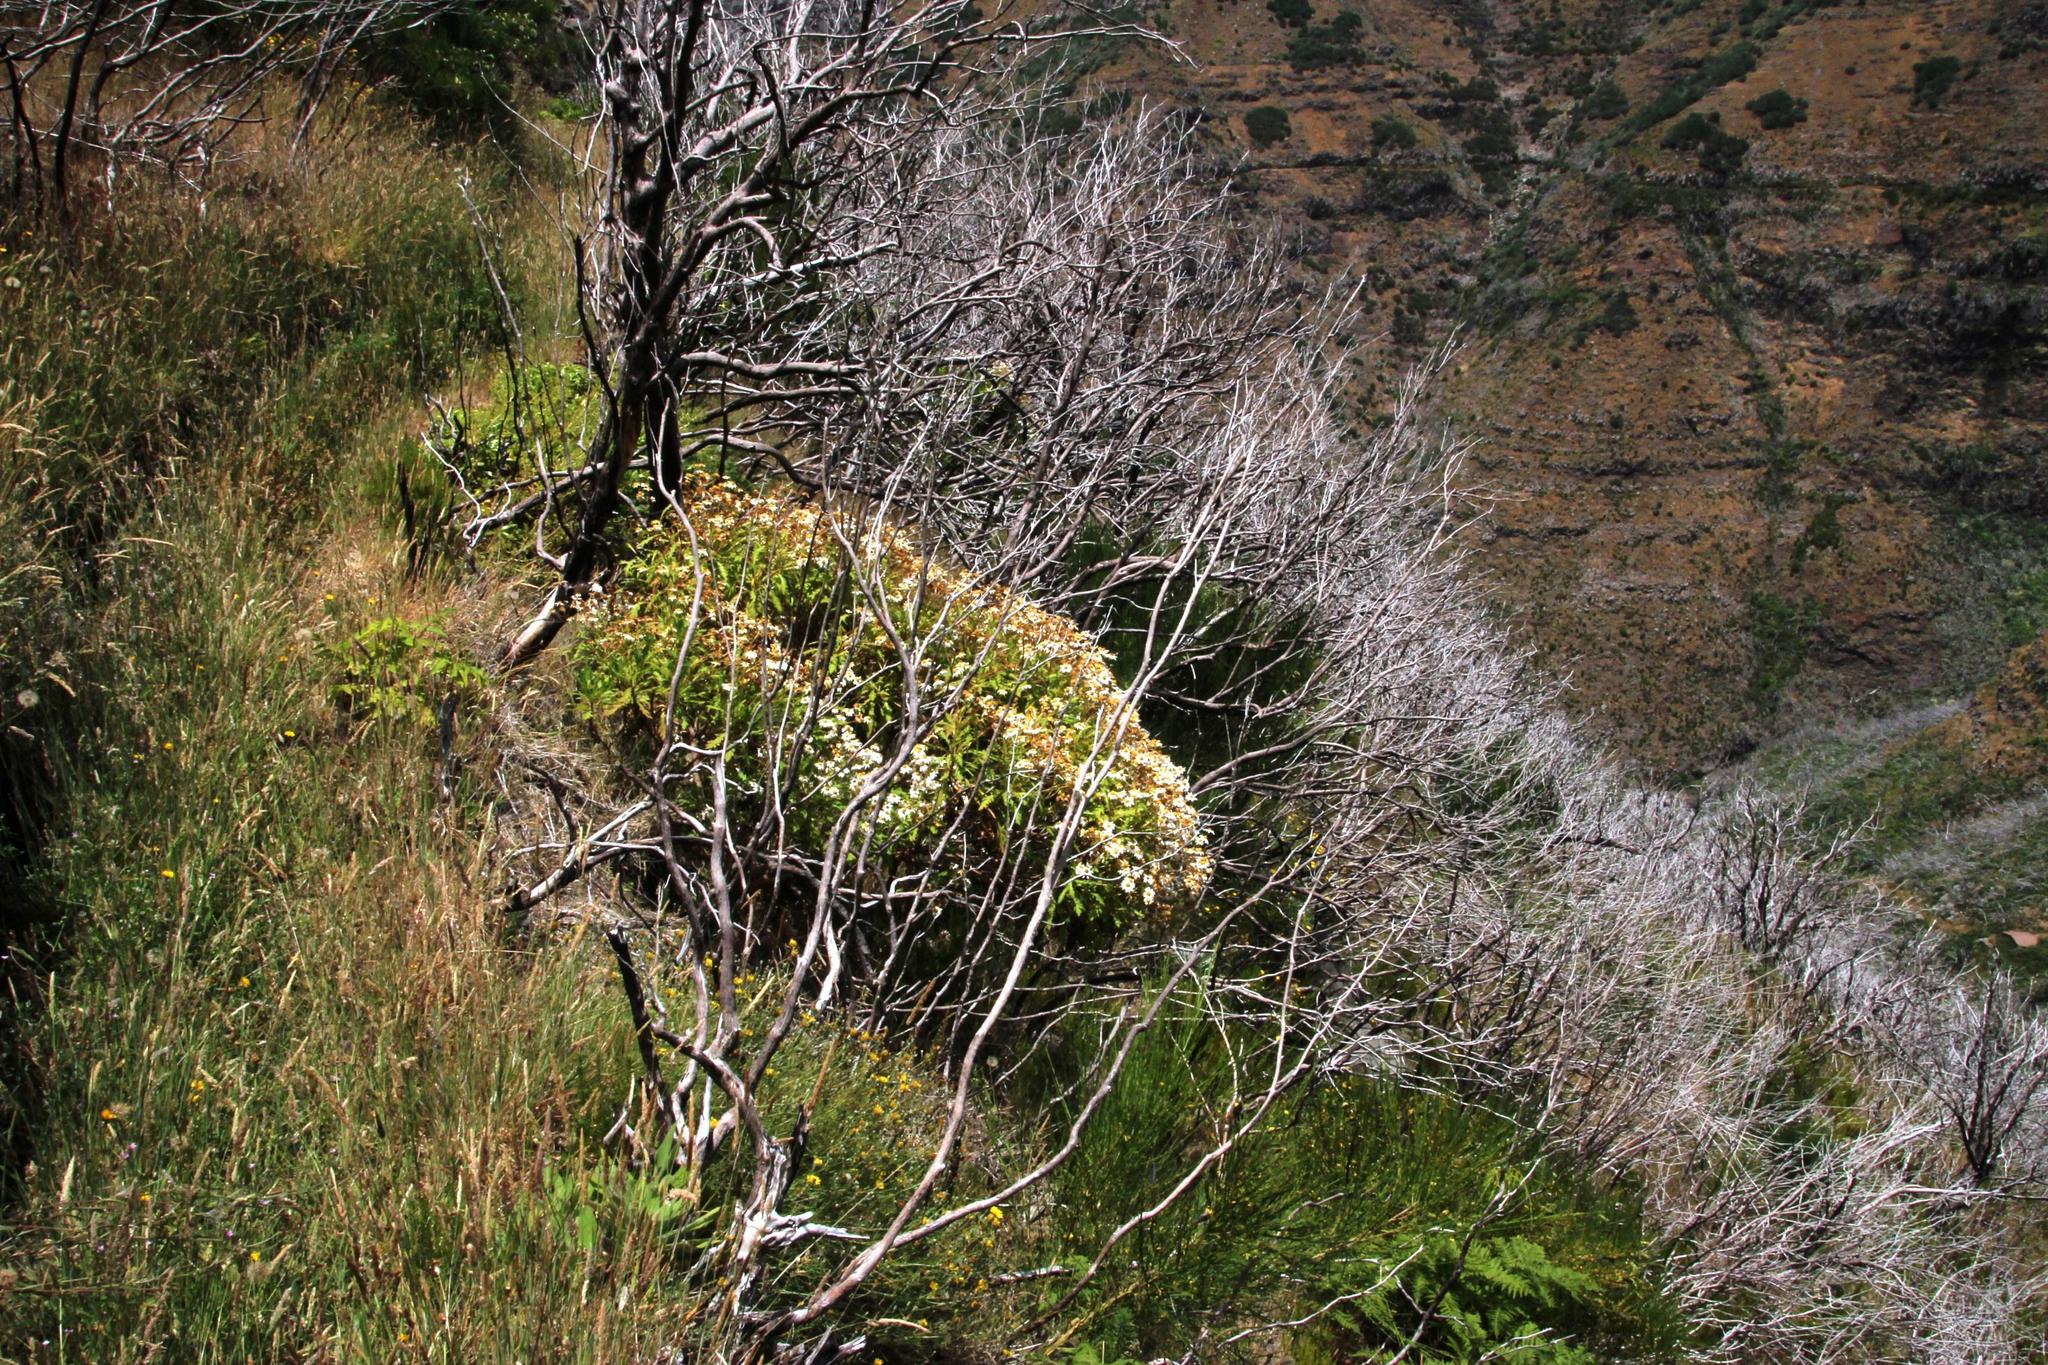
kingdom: Plantae
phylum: Tracheophyta
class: Magnoliopsida
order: Asterales
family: Asteraceae
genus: Argyranthemum
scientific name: Argyranthemum pinnatifidum
